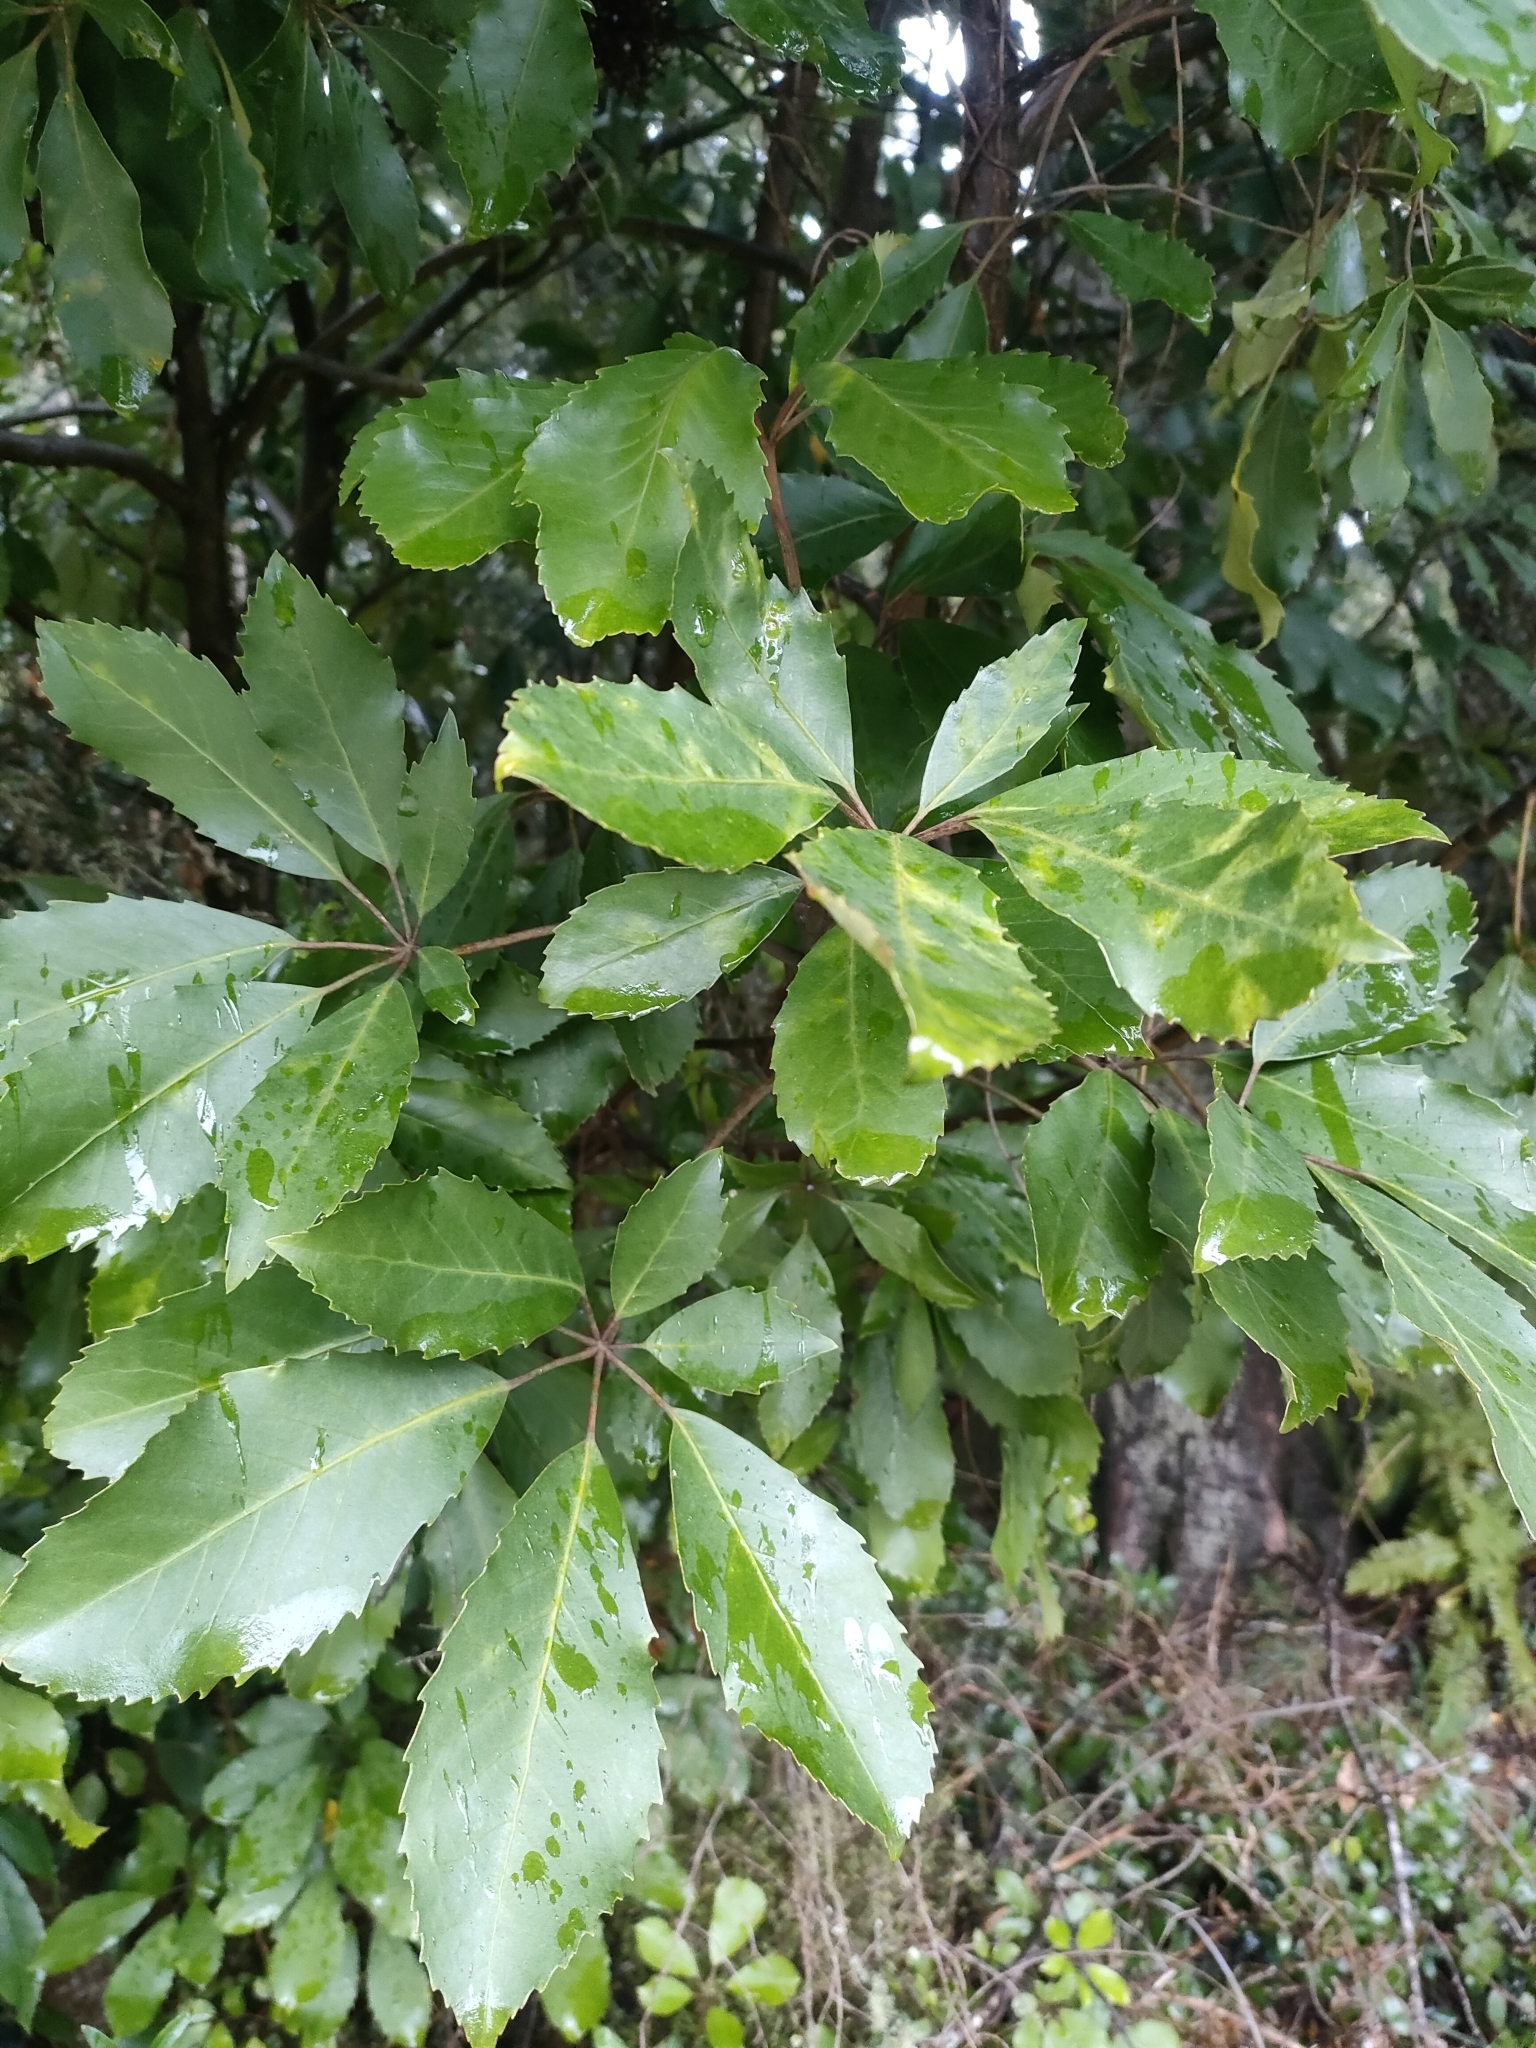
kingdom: Plantae
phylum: Tracheophyta
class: Magnoliopsida
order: Apiales
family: Araliaceae
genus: Neopanax
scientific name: Neopanax arboreus
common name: Five-fingers
